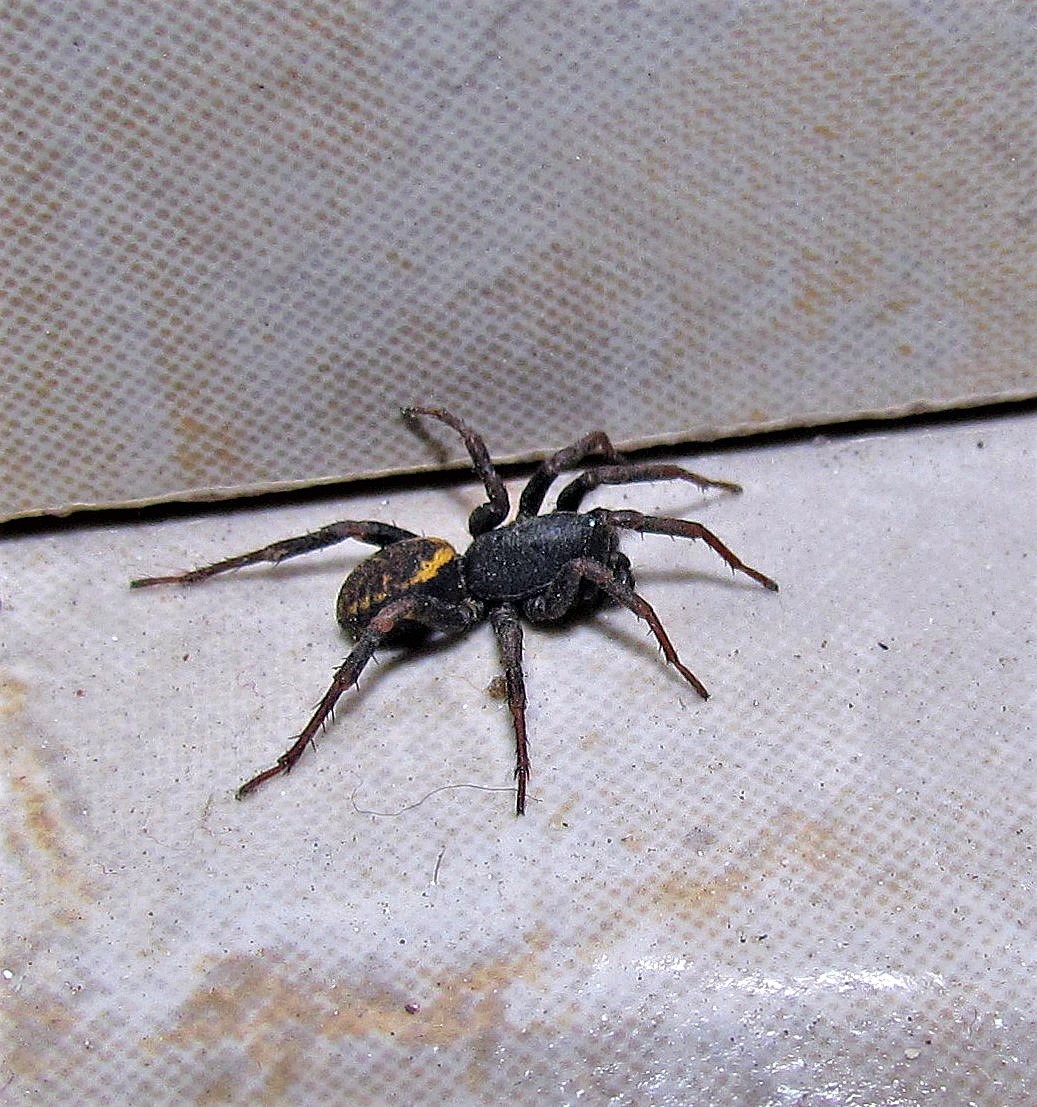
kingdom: Animalia
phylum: Arthropoda
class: Arachnida
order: Araneae
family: Zodariidae
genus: Cybaeodamus
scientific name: Cybaeodamus meridionalis
